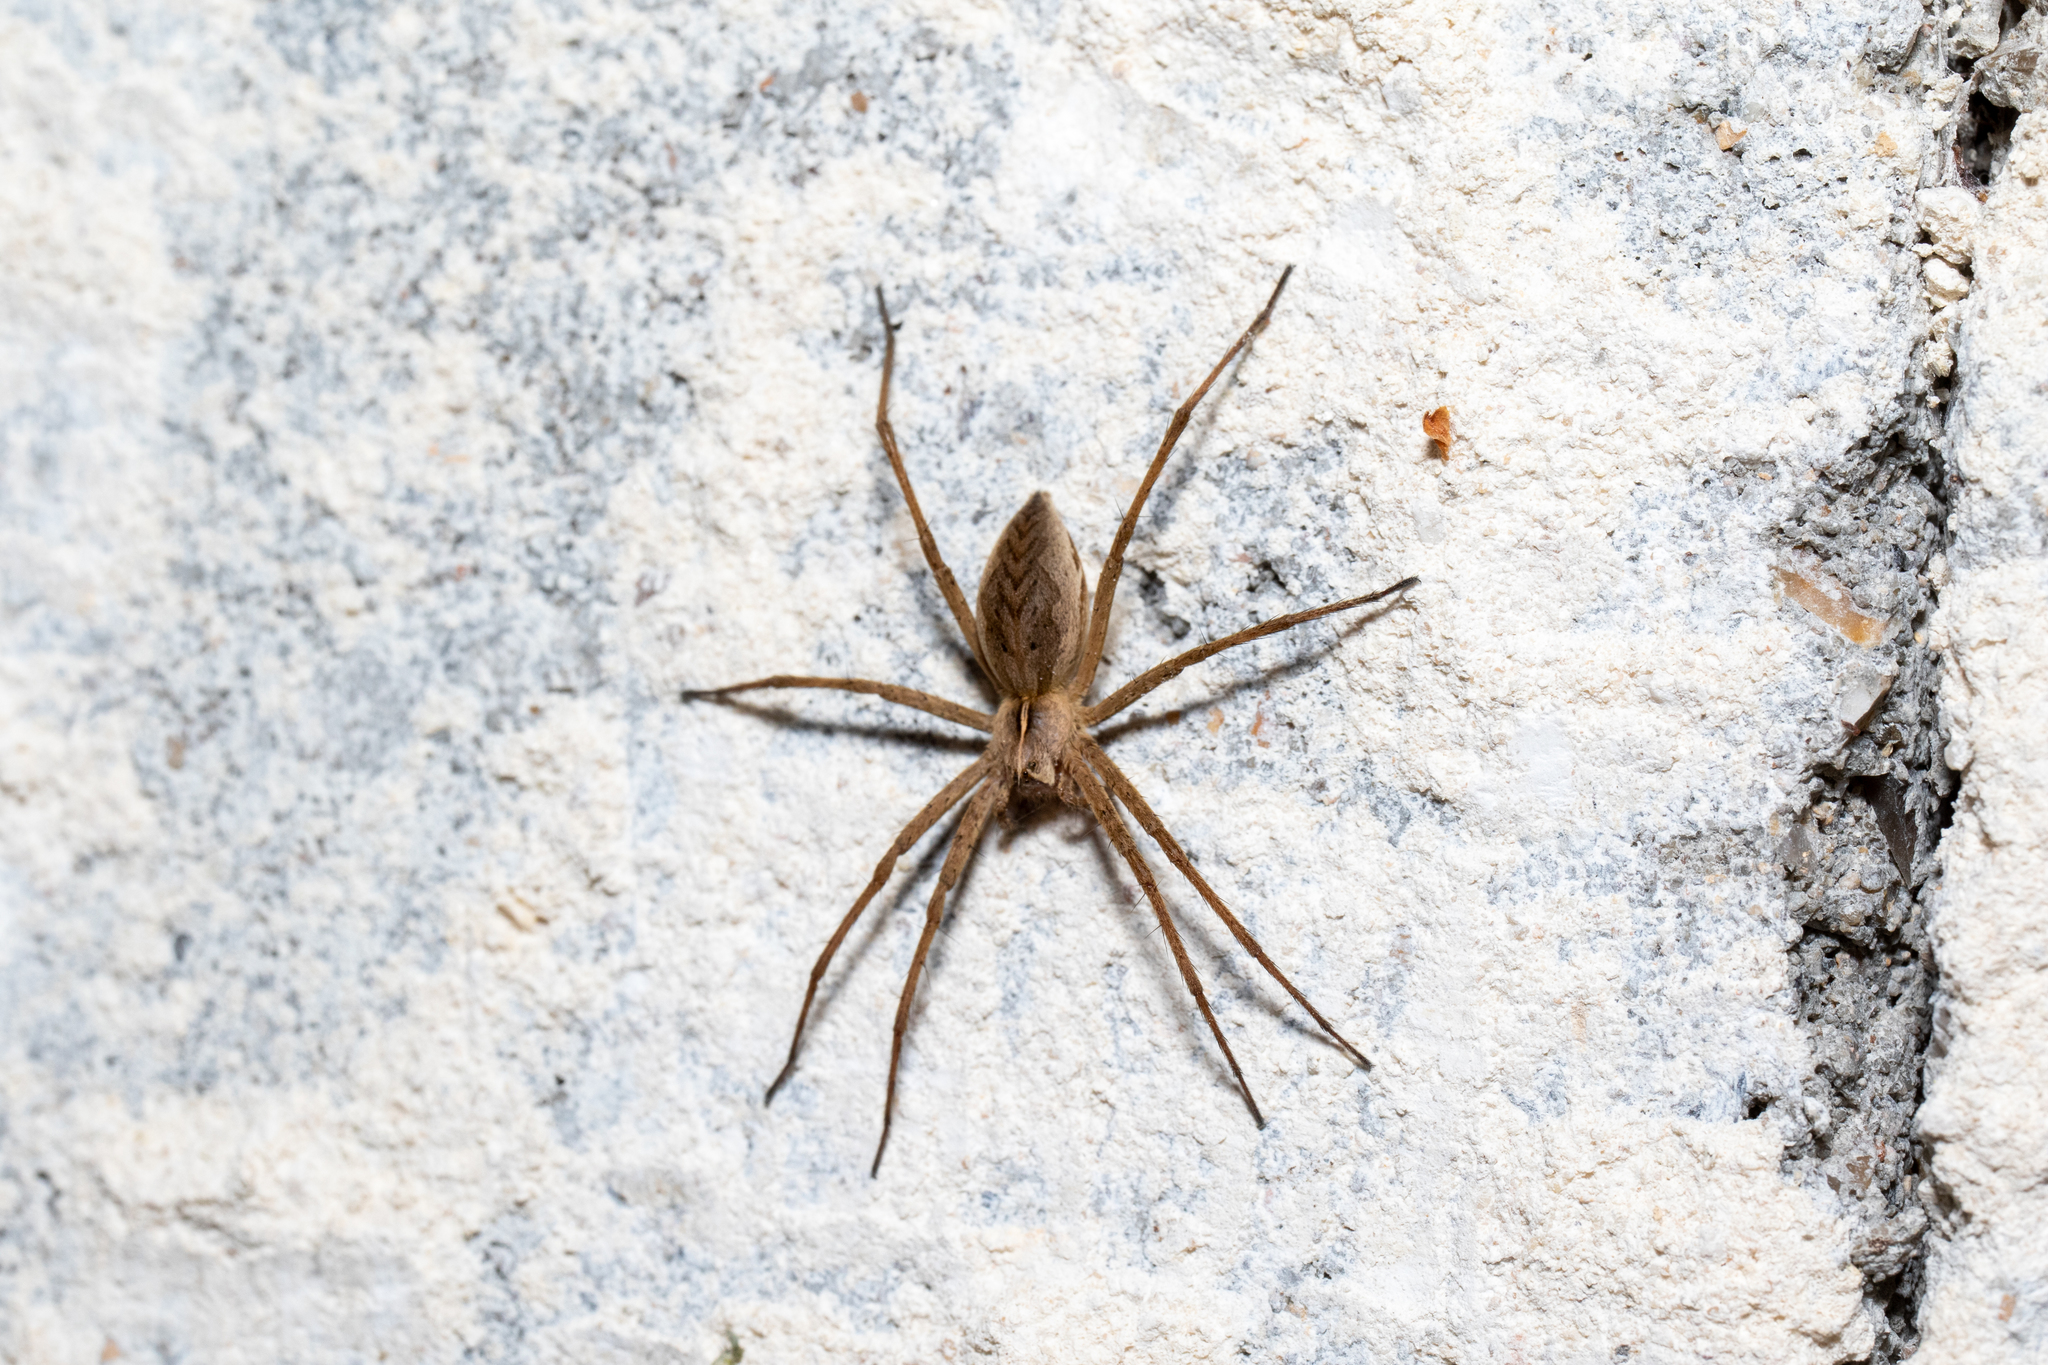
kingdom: Animalia
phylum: Arthropoda
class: Arachnida
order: Araneae
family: Pisauridae
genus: Pisaura
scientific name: Pisaura mirabilis
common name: Tent spider
